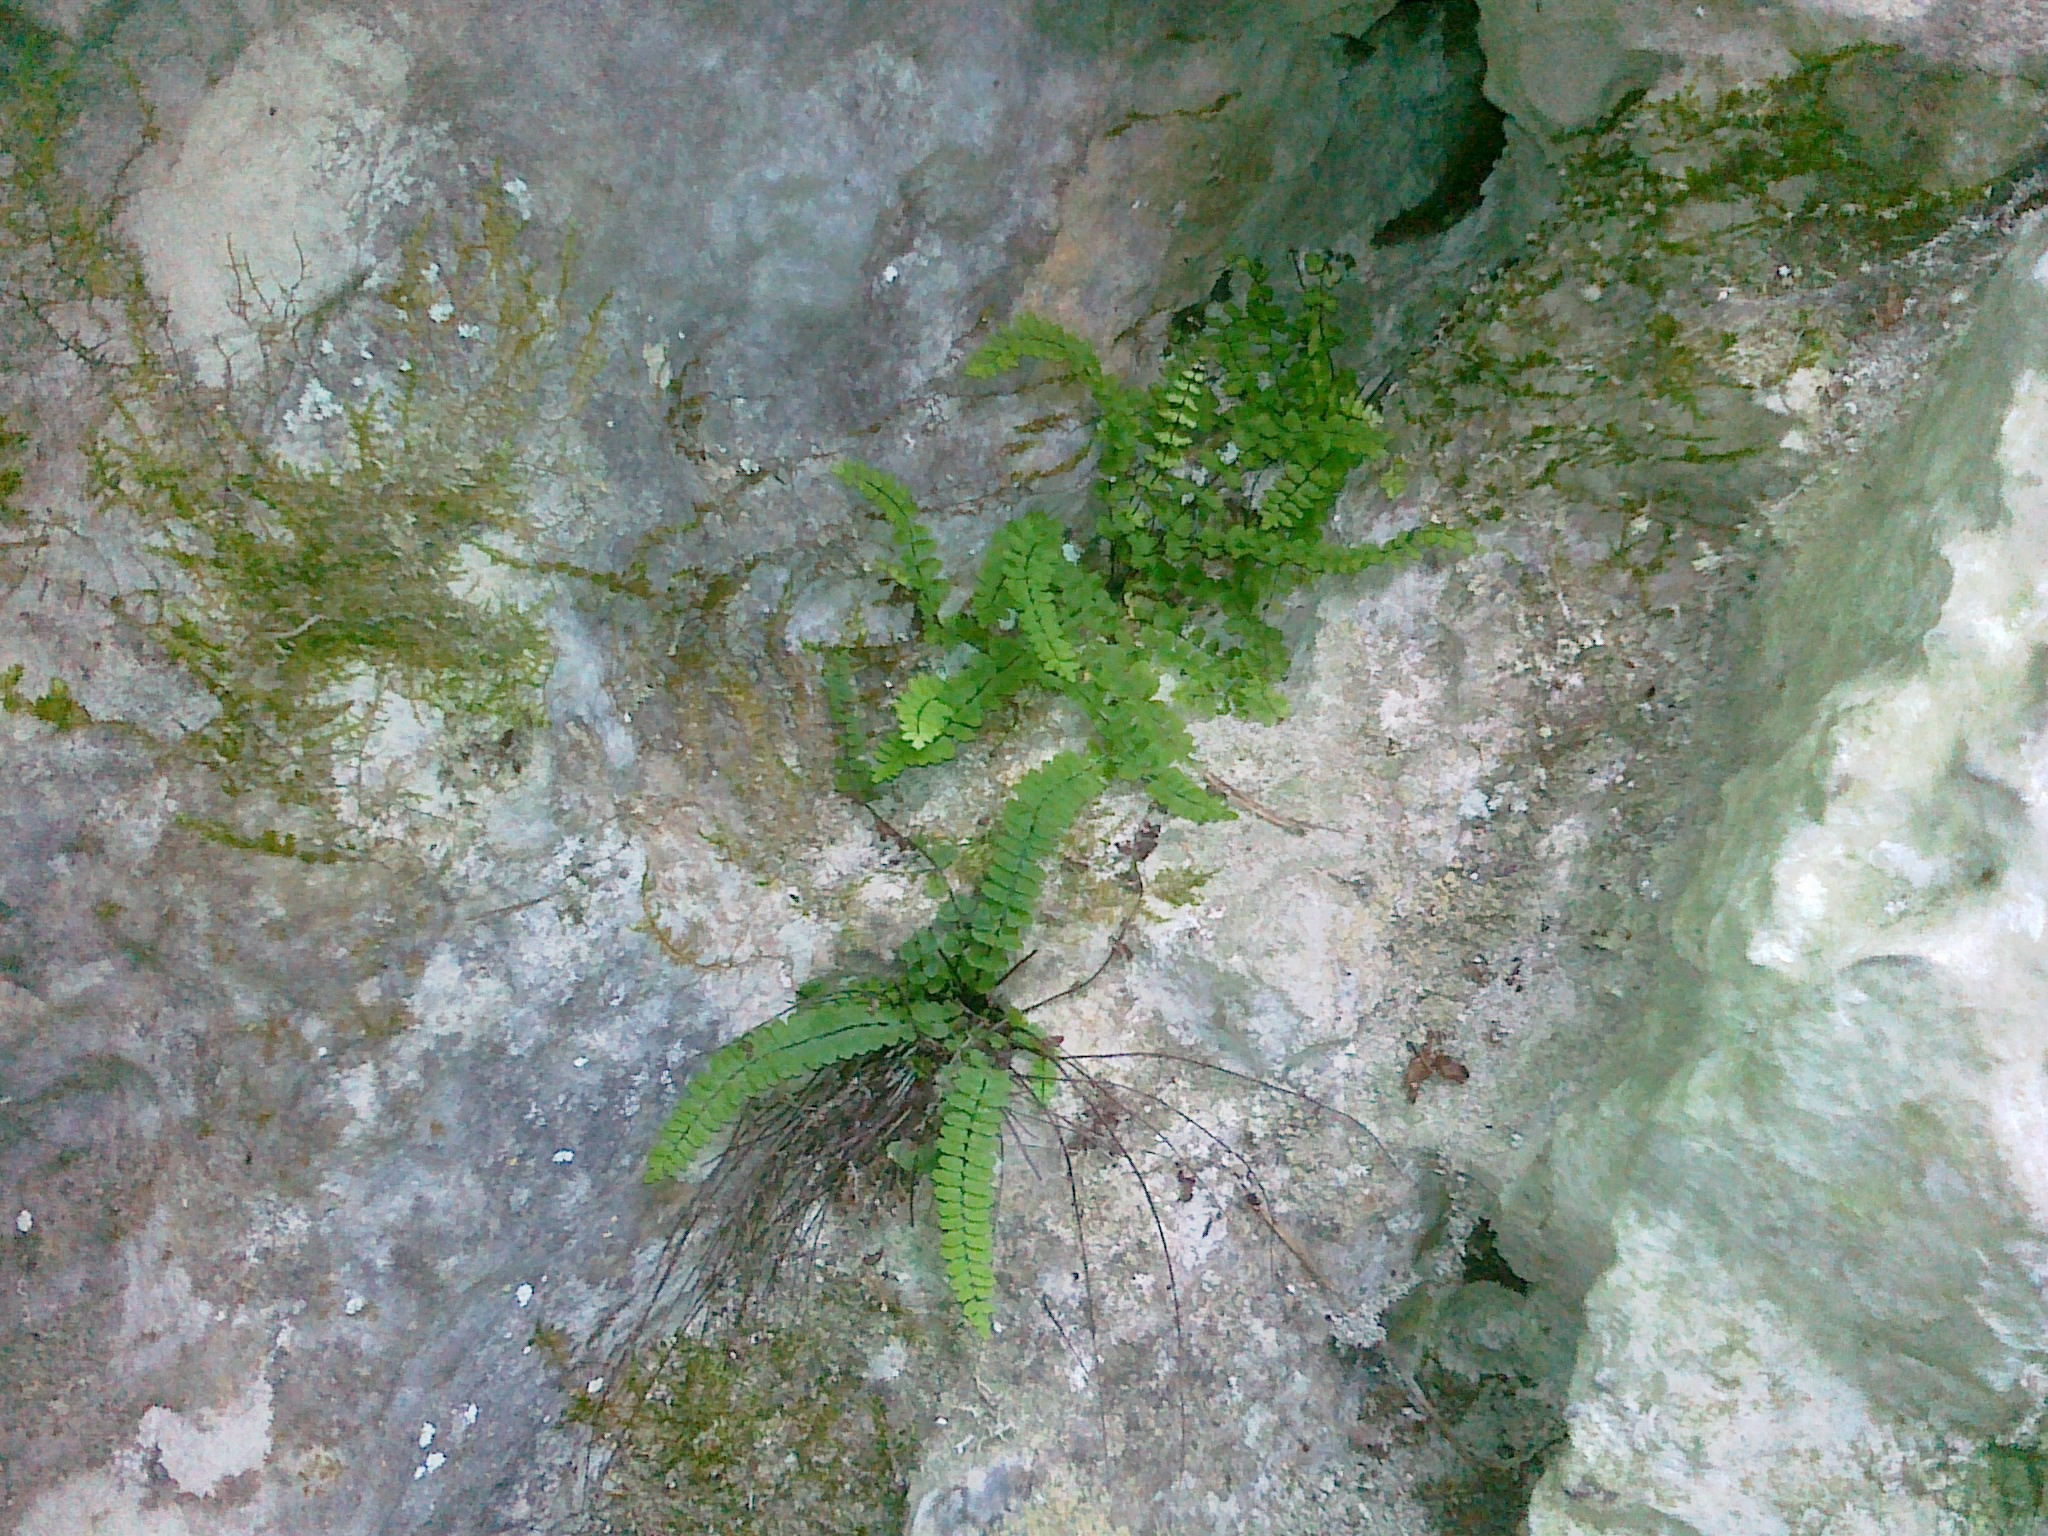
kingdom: Plantae
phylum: Tracheophyta
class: Polypodiopsida
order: Polypodiales
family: Aspleniaceae
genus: Asplenium
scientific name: Asplenium csikii
